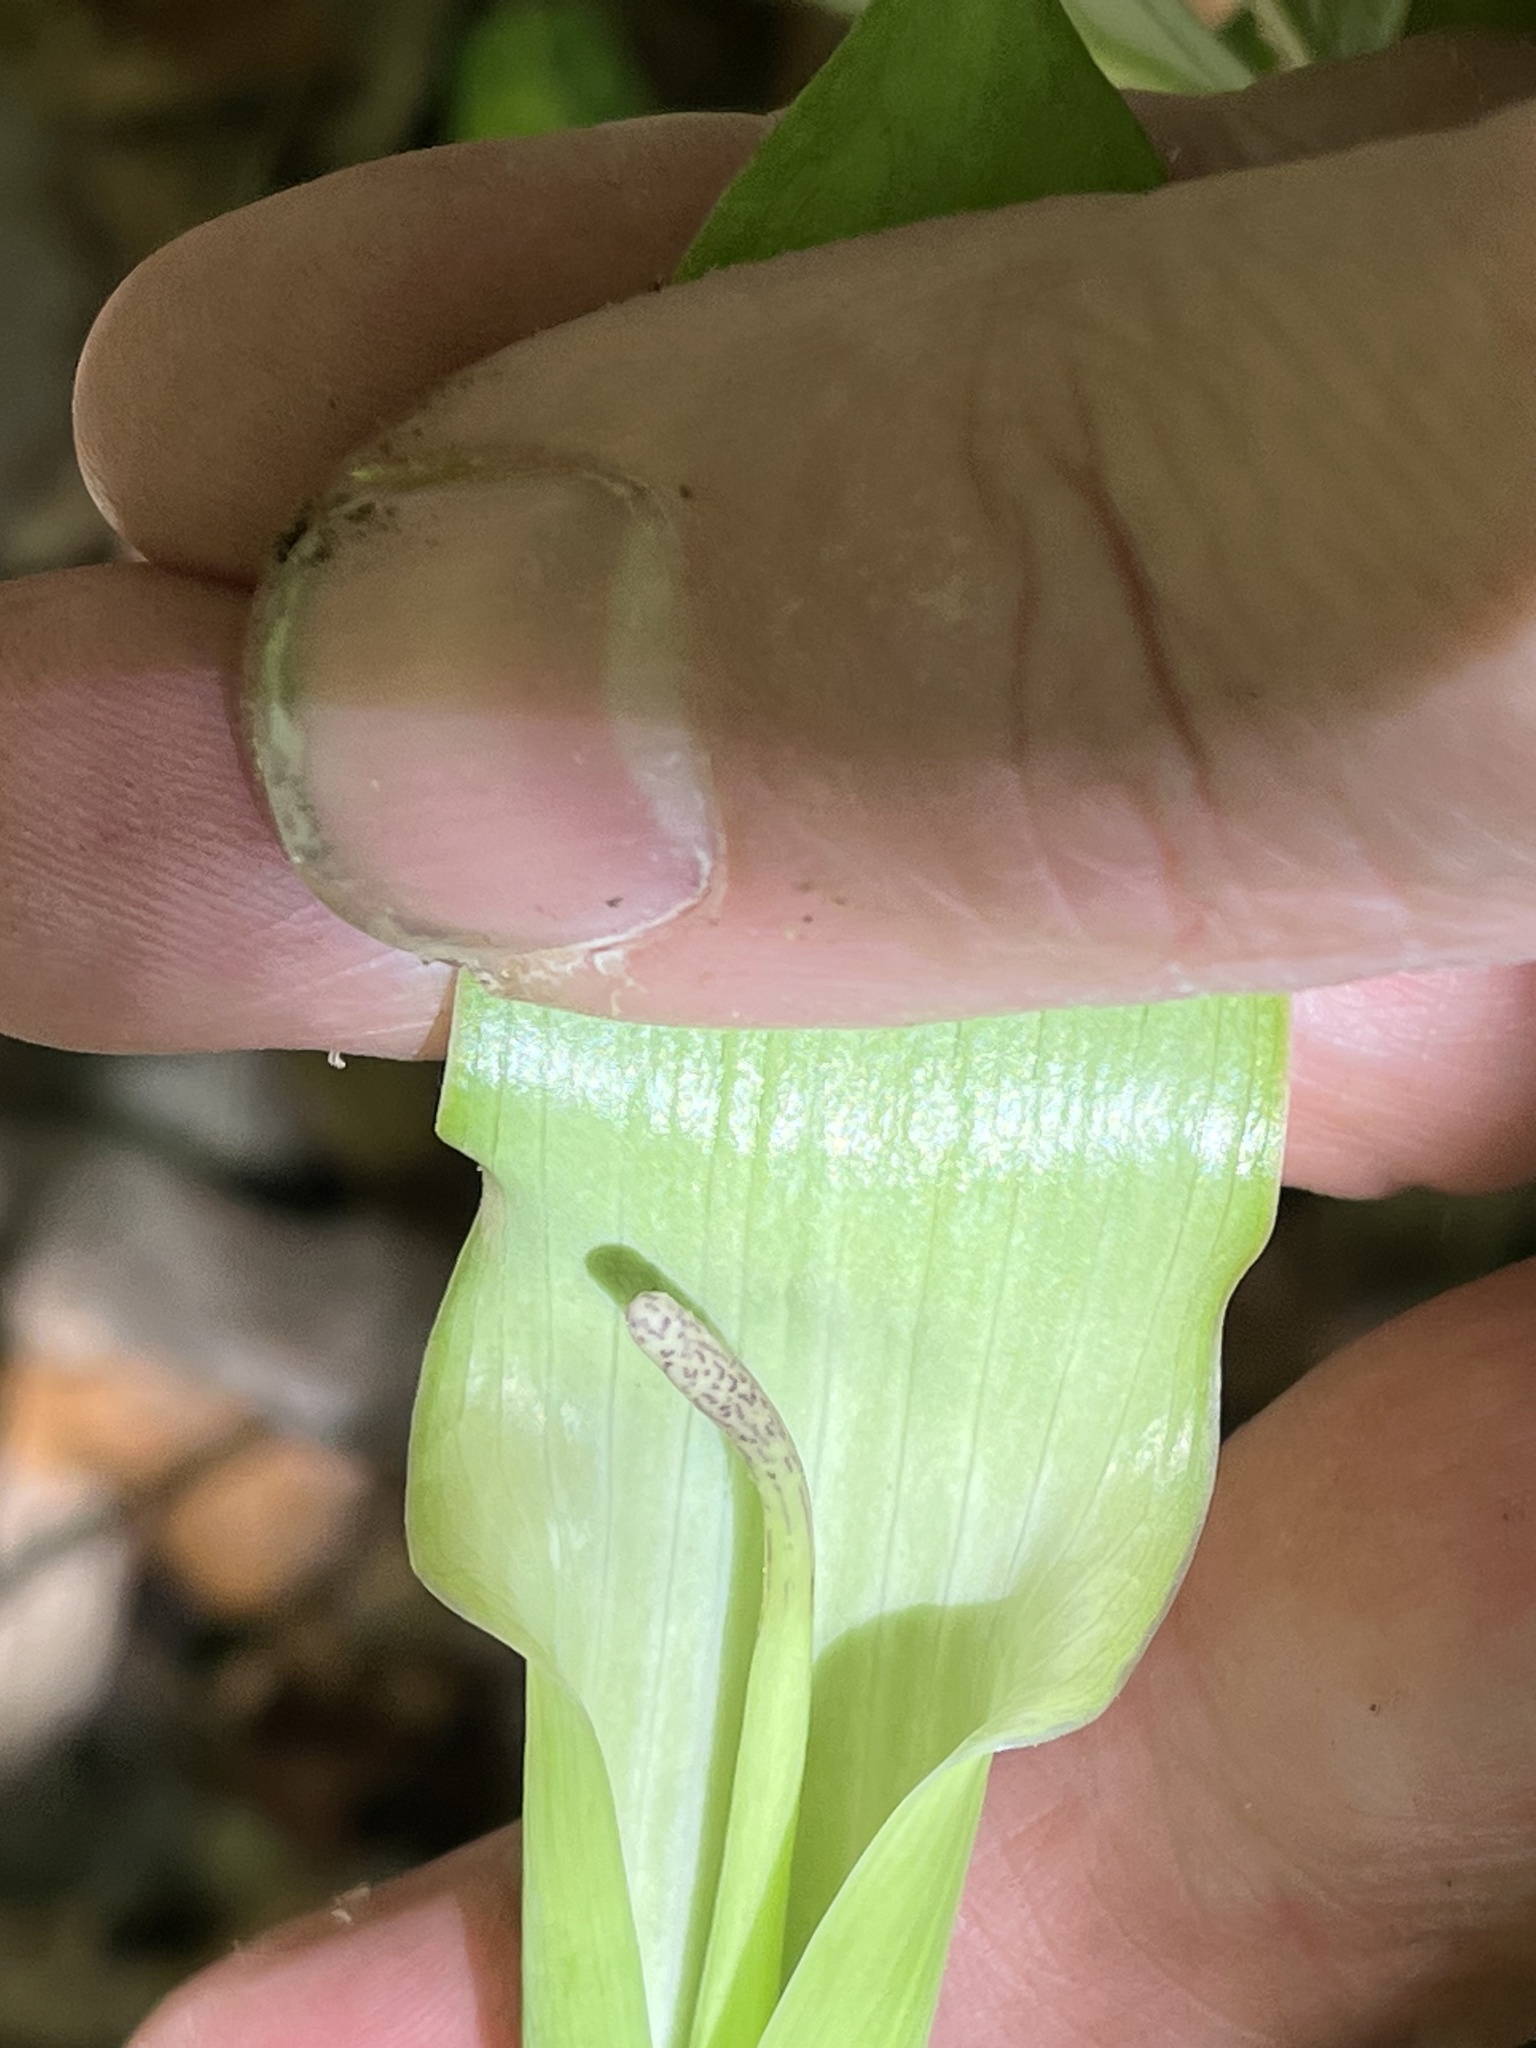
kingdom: Plantae
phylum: Tracheophyta
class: Liliopsida
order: Alismatales
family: Araceae
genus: Arisaema
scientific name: Arisaema quinatum
